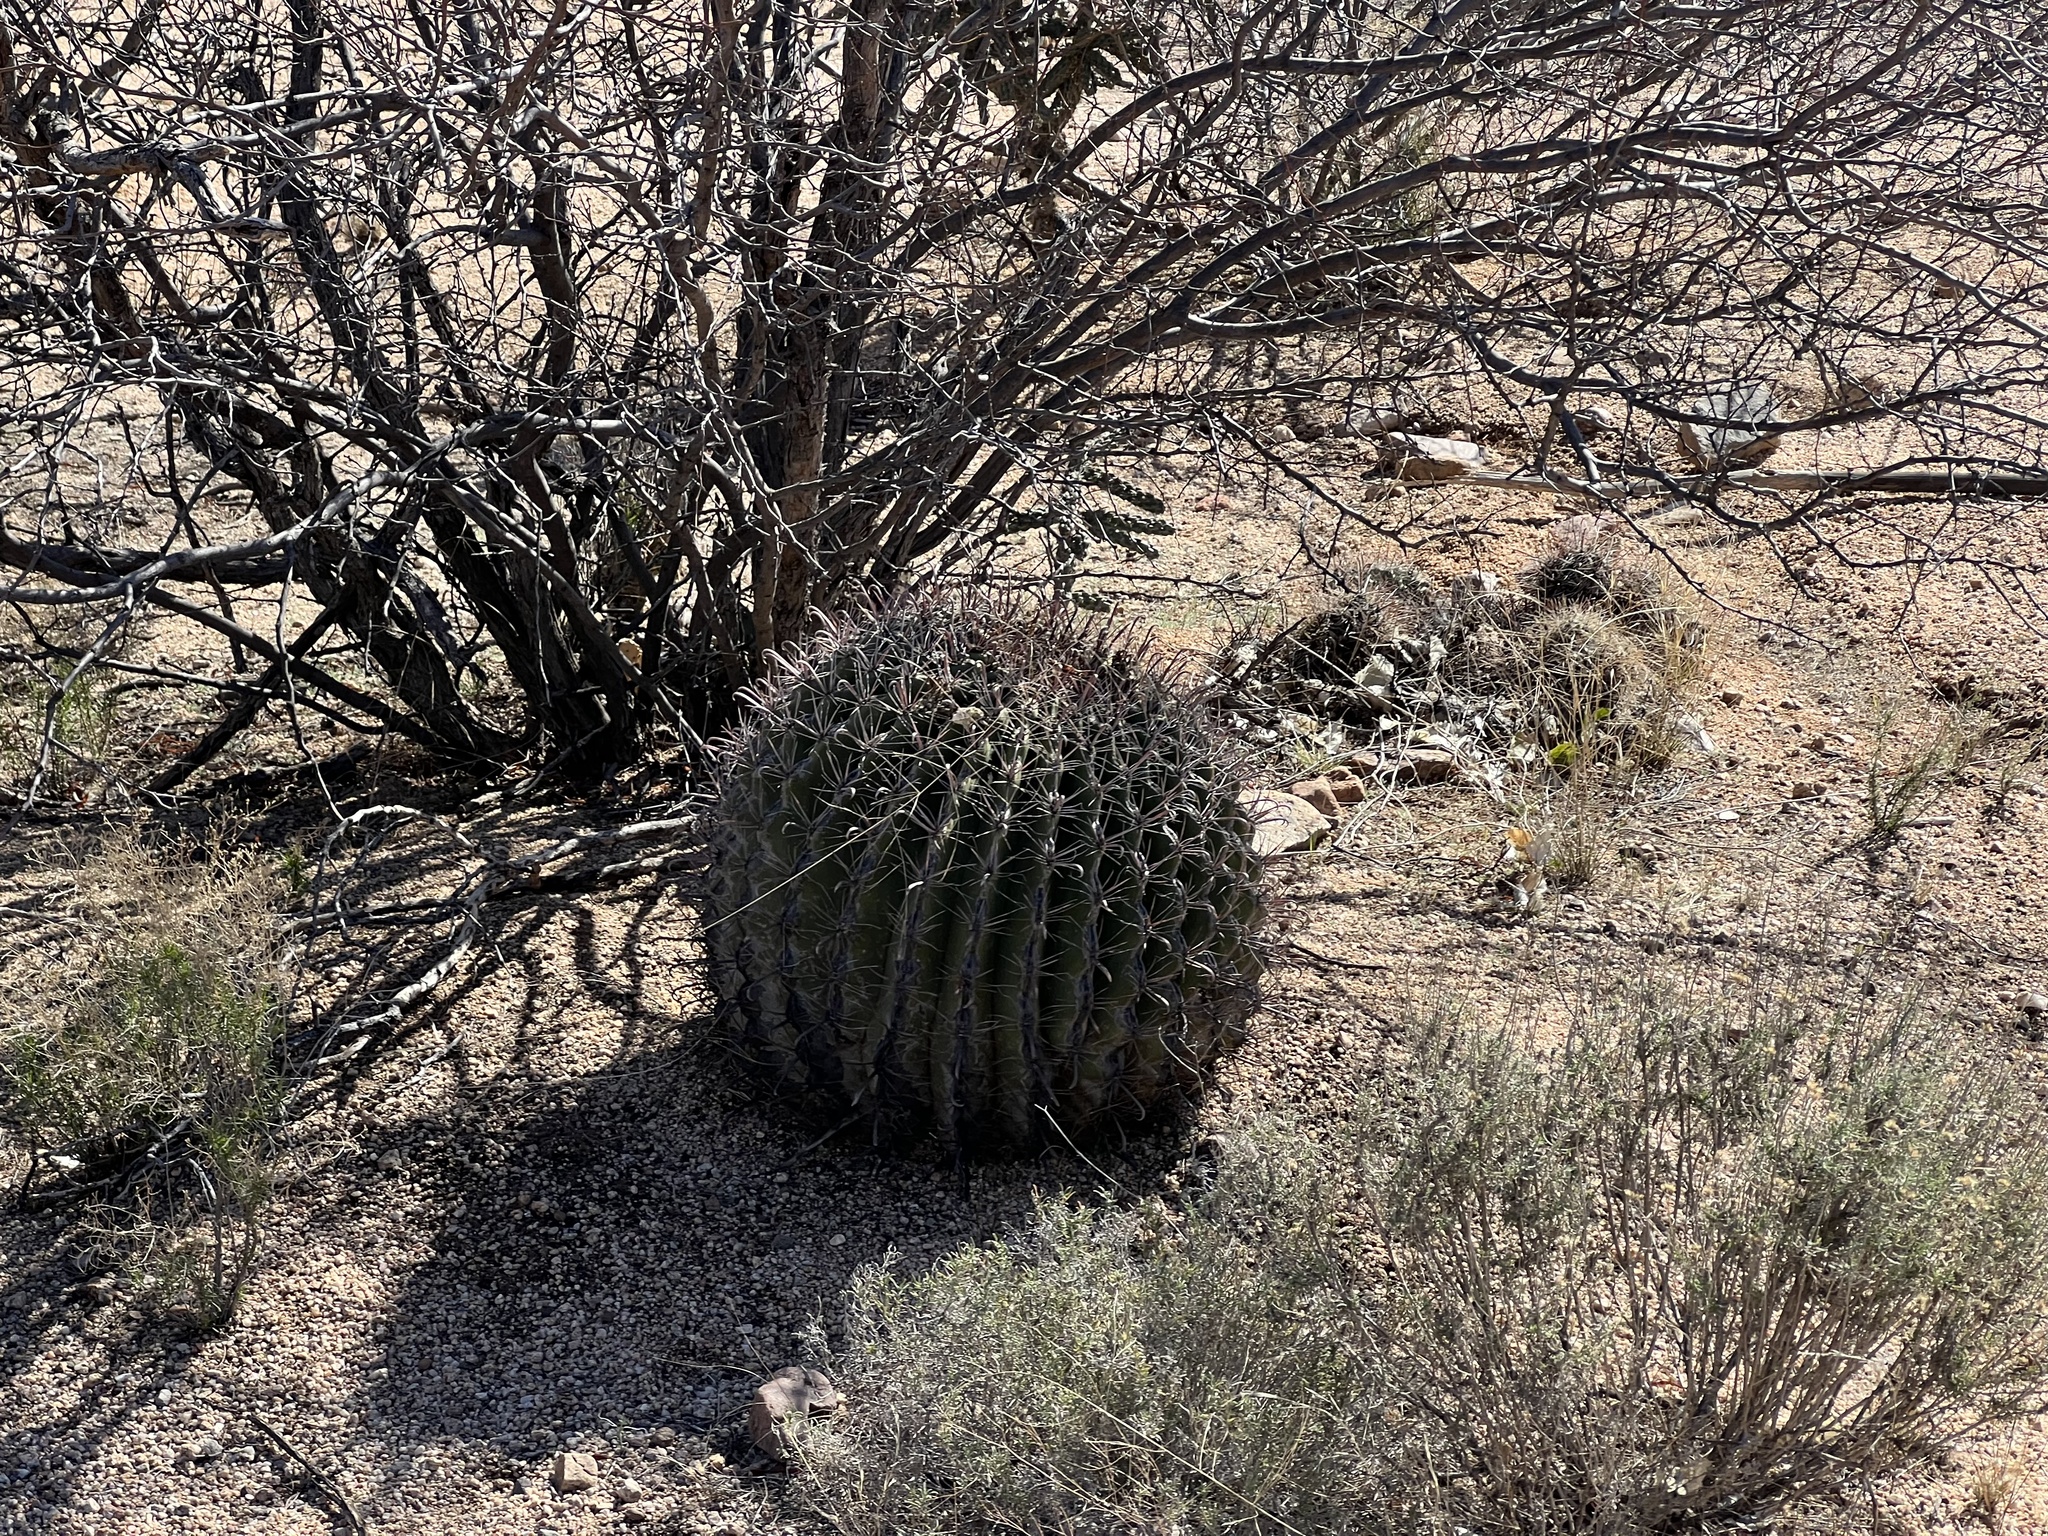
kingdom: Plantae
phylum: Tracheophyta
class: Magnoliopsida
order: Caryophyllales
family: Cactaceae
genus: Ferocactus
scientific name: Ferocactus wislizeni
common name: Candy barrel cactus
